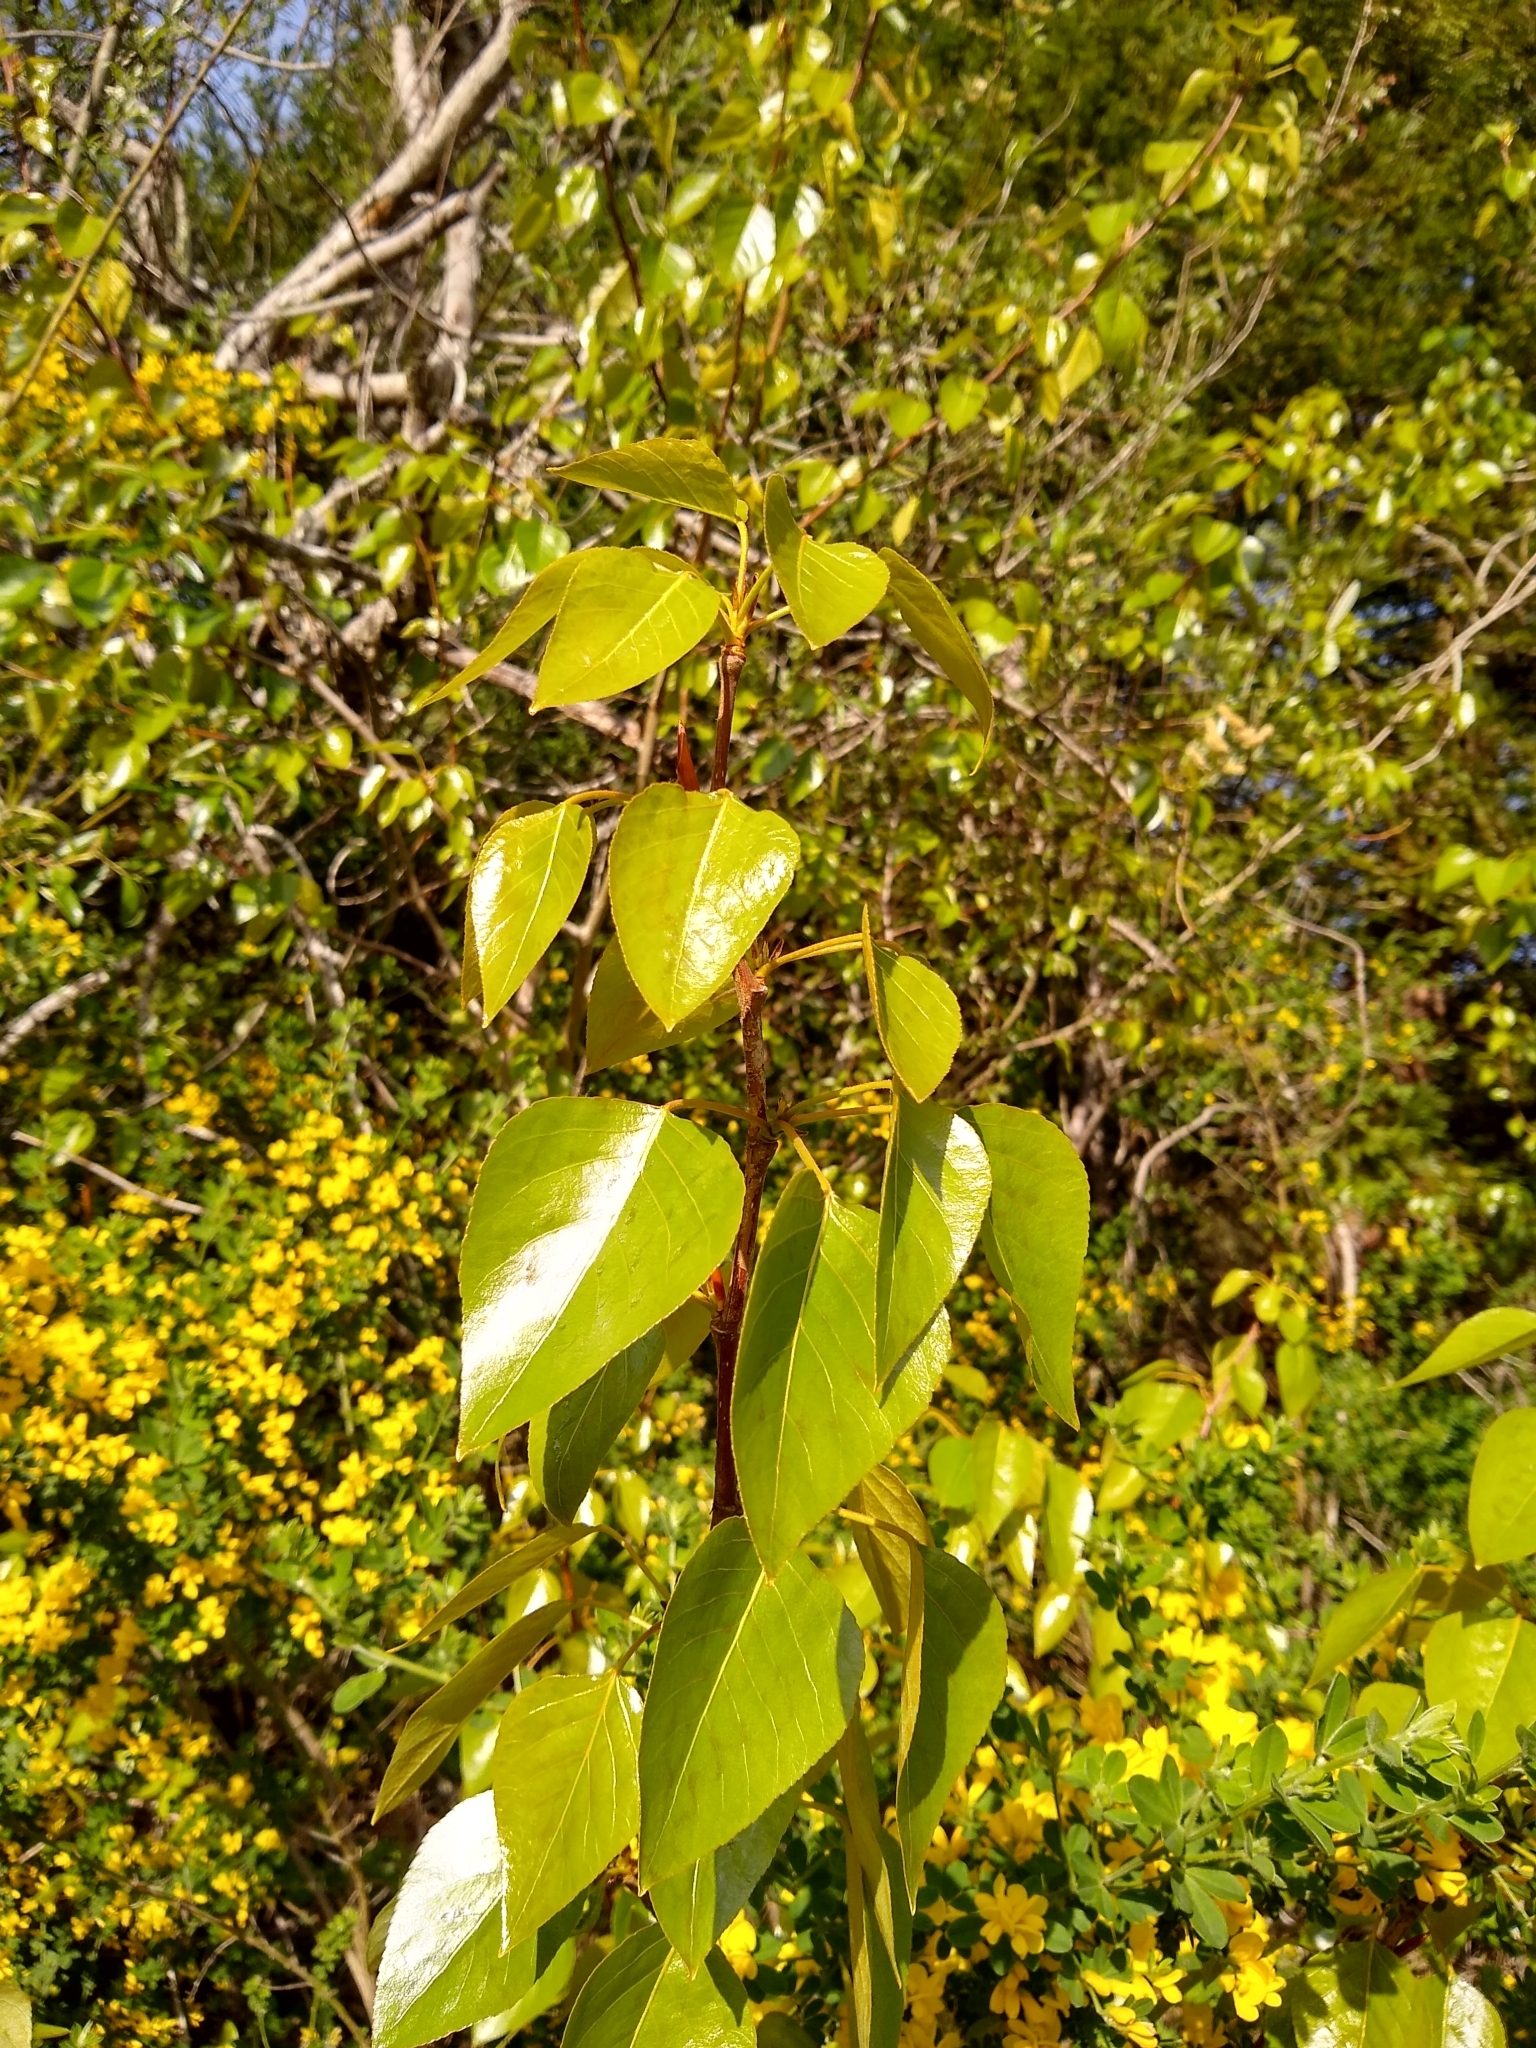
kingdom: Plantae
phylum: Tracheophyta
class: Magnoliopsida
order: Malpighiales
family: Salicaceae
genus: Populus
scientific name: Populus trichocarpa
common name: Black cottonwood
